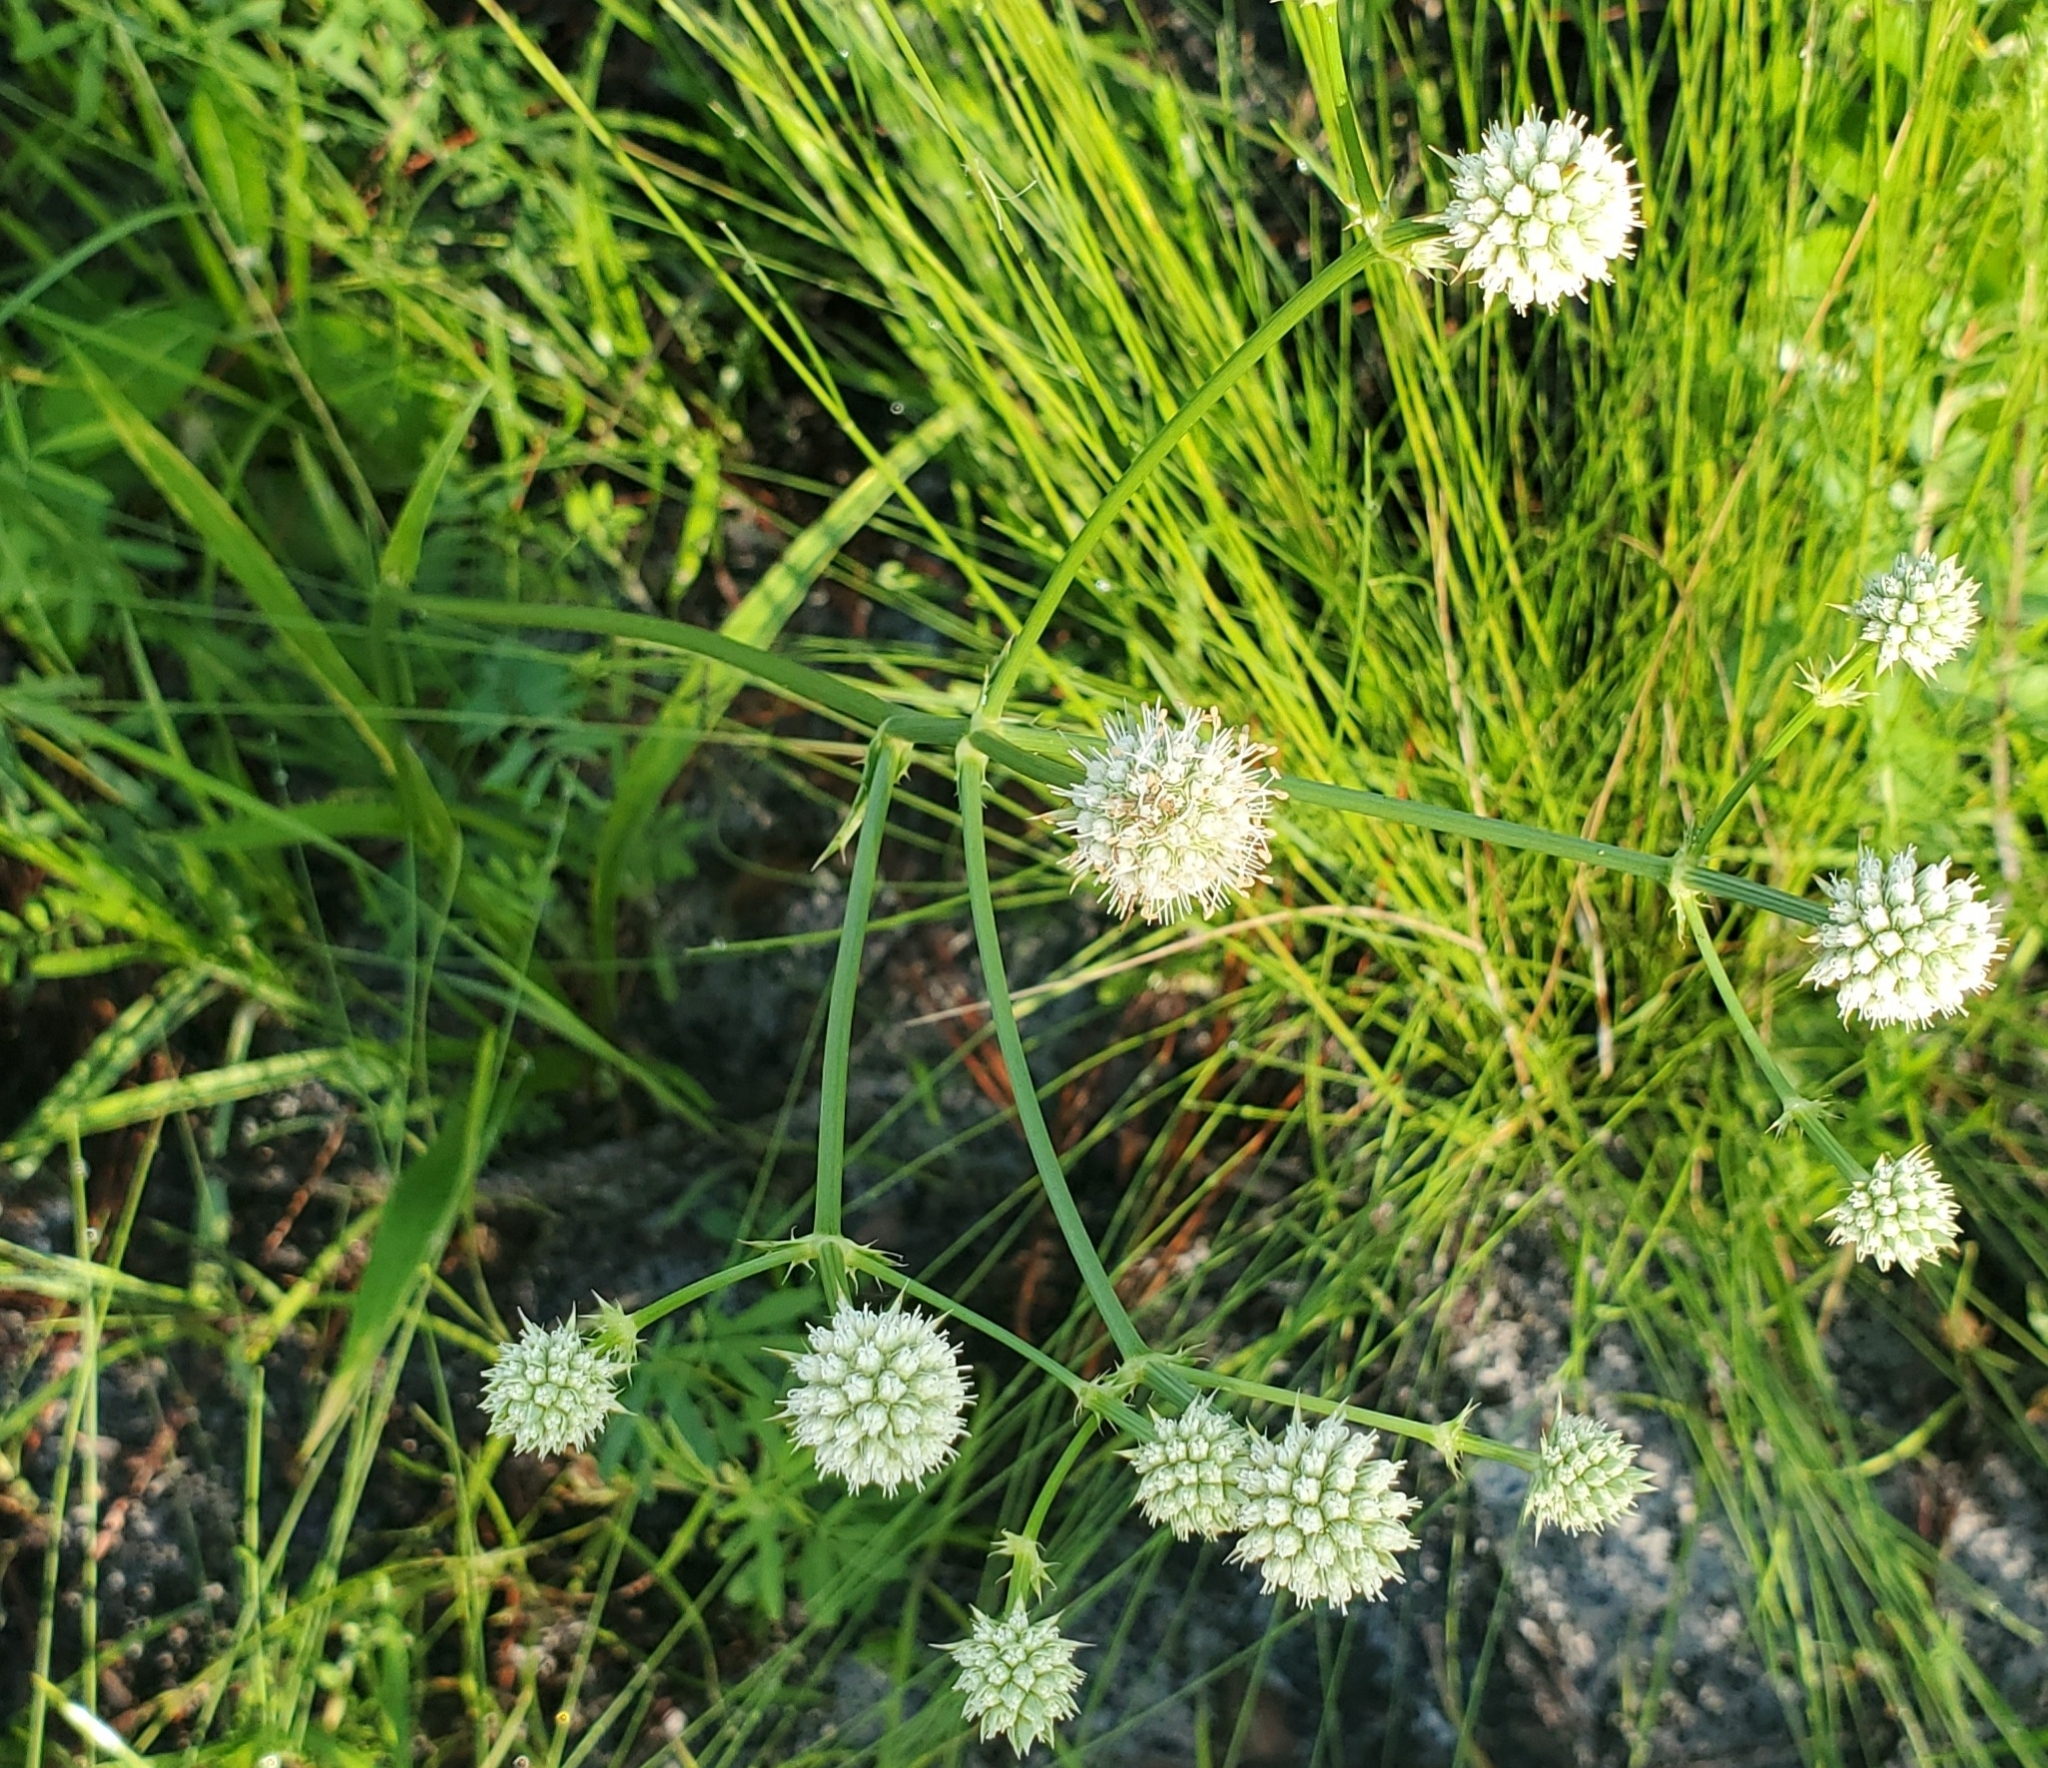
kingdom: Plantae
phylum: Tracheophyta
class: Magnoliopsida
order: Apiales
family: Apiaceae
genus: Eryngium
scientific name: Eryngium yuccifolium
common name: Button eryngo
